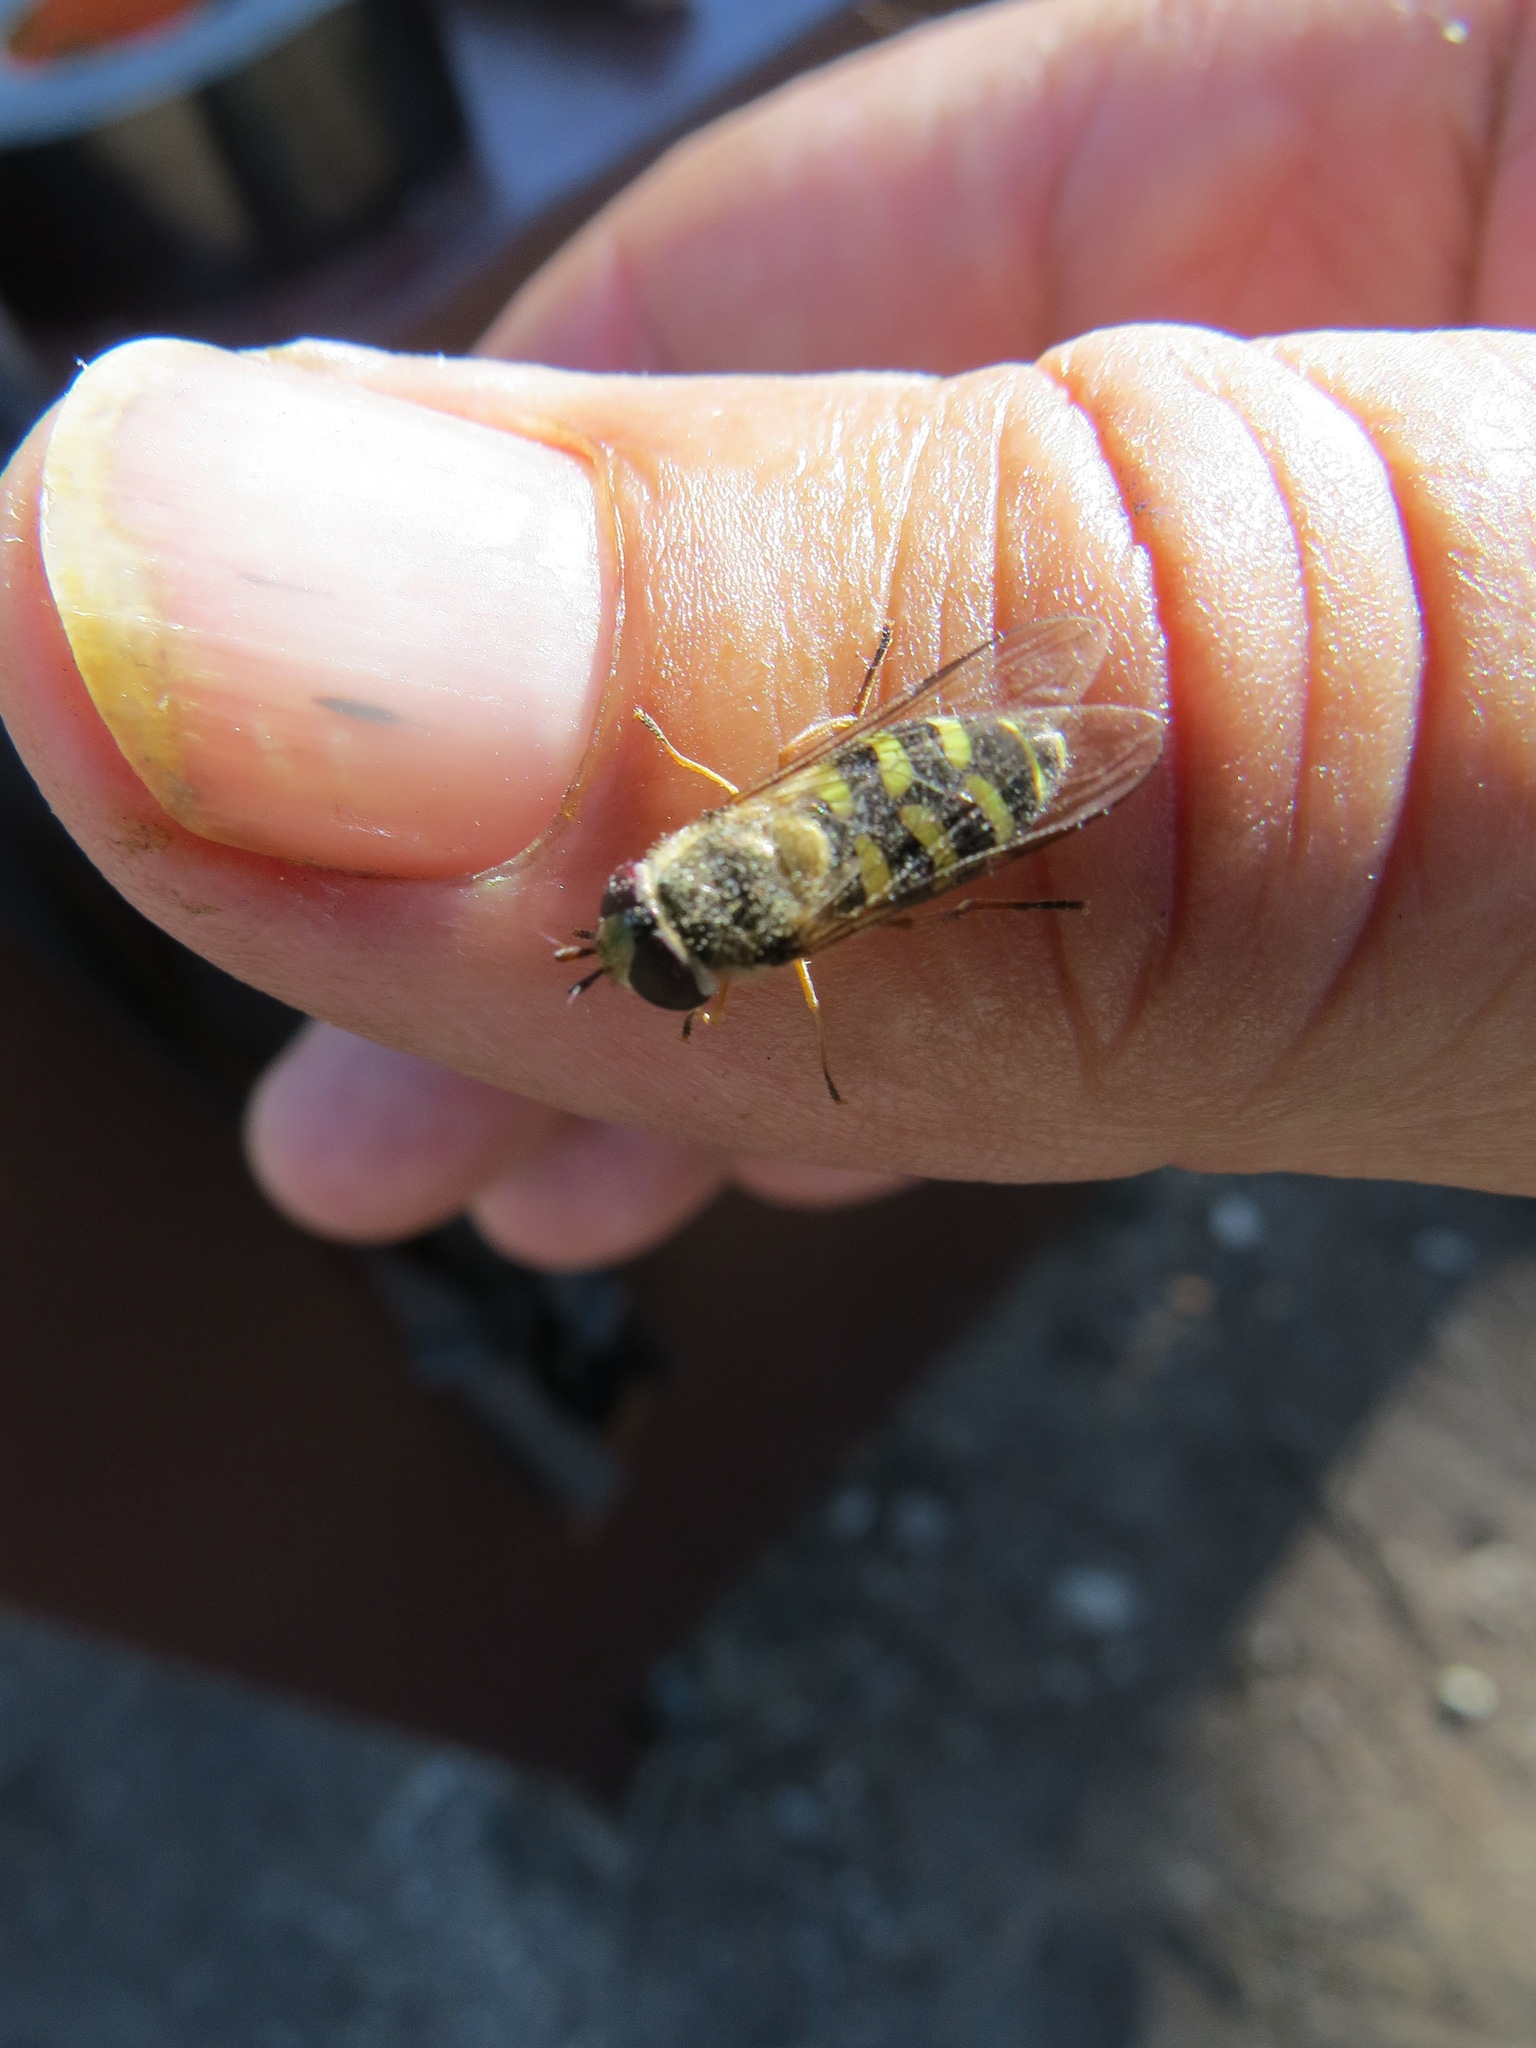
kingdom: Animalia
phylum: Arthropoda
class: Insecta
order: Diptera
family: Syrphidae
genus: Lapposyrphus
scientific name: Lapposyrphus lapponicus
